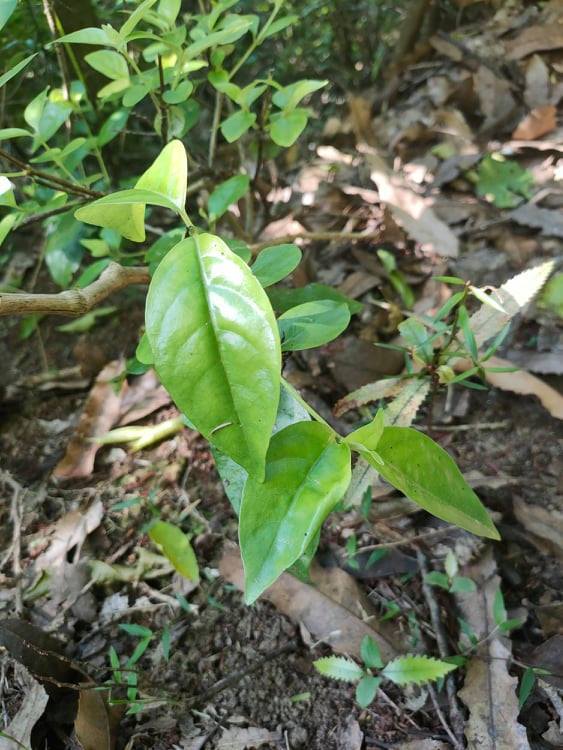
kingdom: Plantae
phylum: Tracheophyta
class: Magnoliopsida
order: Gentianales
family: Loganiaceae
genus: Geniostoma
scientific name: Geniostoma ligustrifolium
